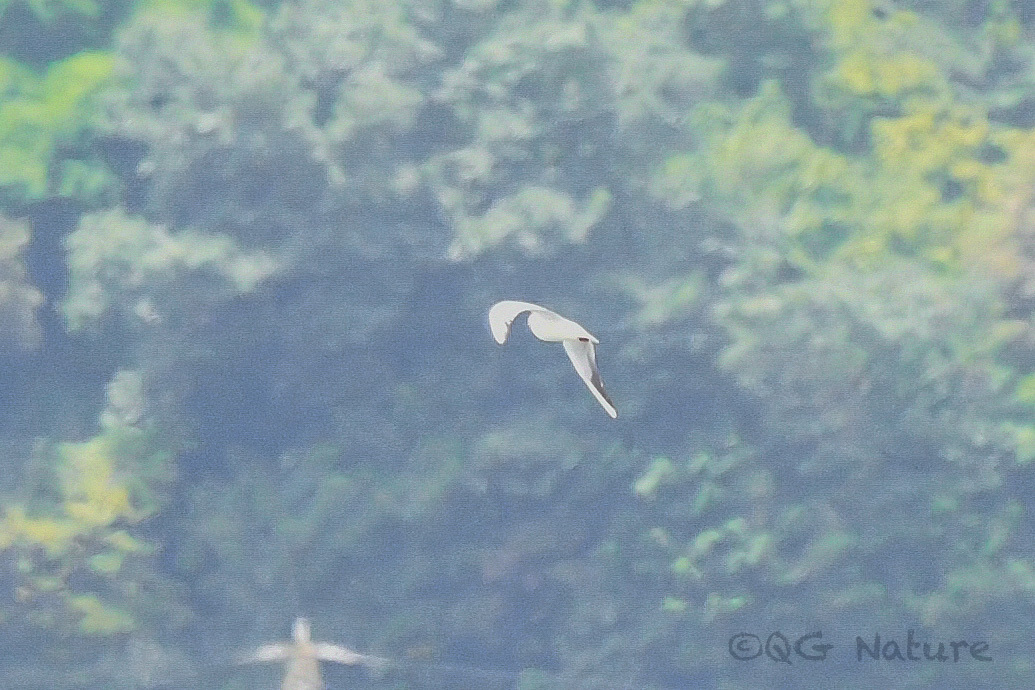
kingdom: Animalia
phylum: Chordata
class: Aves
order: Charadriiformes
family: Laridae
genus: Chroicocephalus
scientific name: Chroicocephalus ridibundus
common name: Black-headed gull
